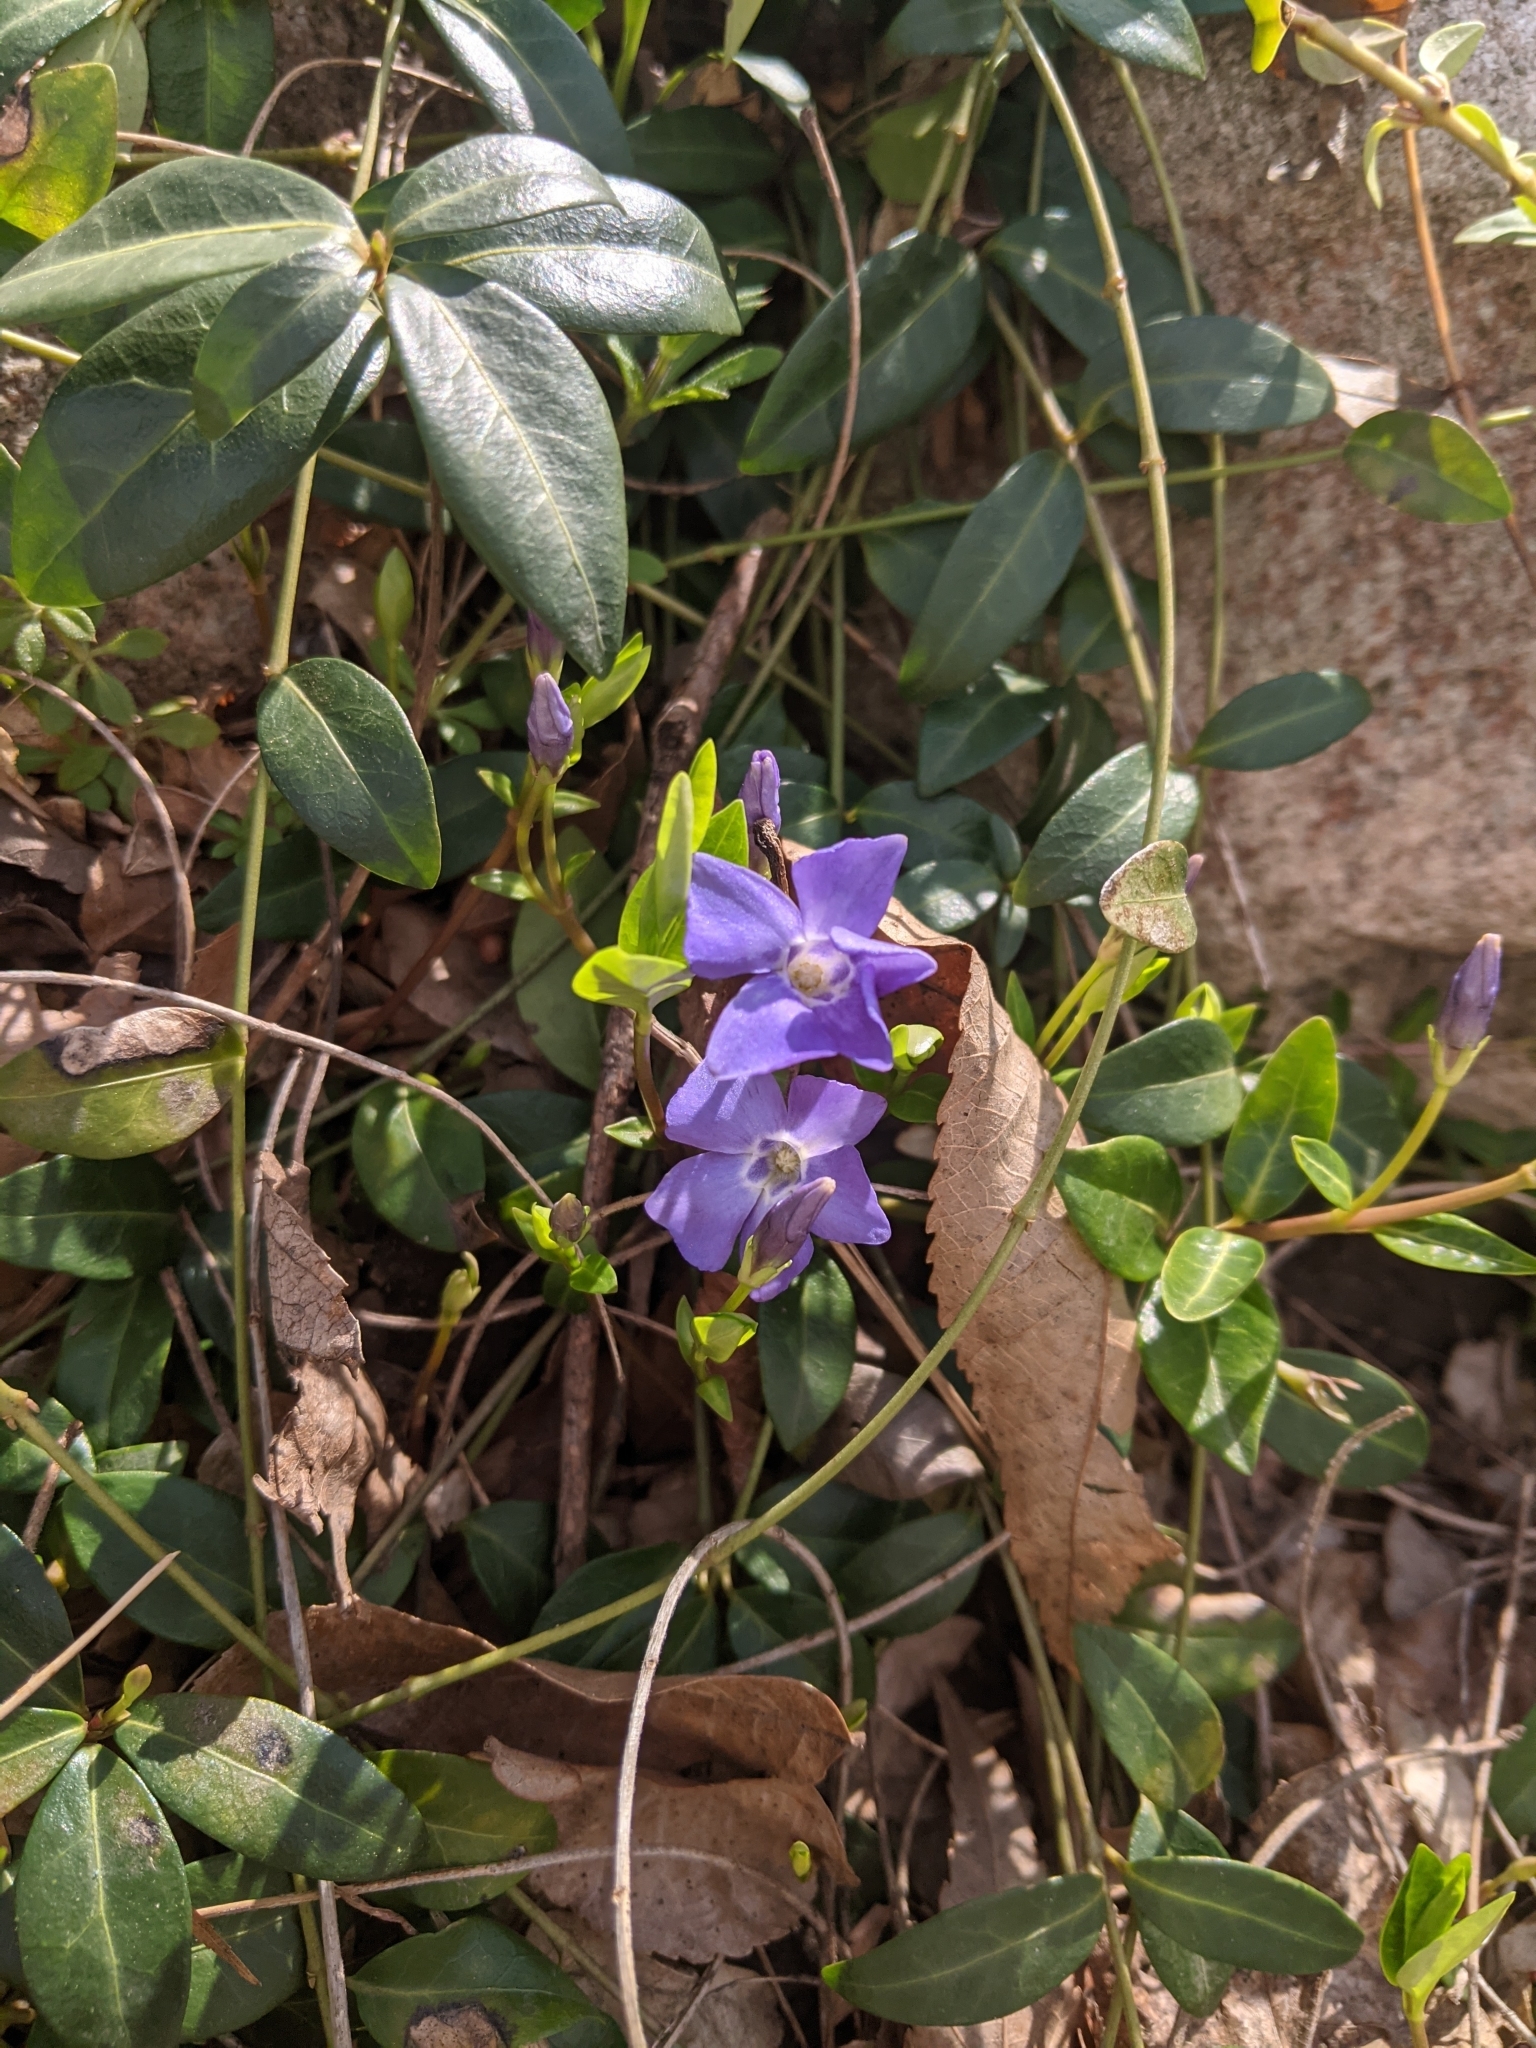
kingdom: Plantae
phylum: Tracheophyta
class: Magnoliopsida
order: Gentianales
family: Apocynaceae
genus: Vinca
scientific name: Vinca minor
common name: Lesser periwinkle
